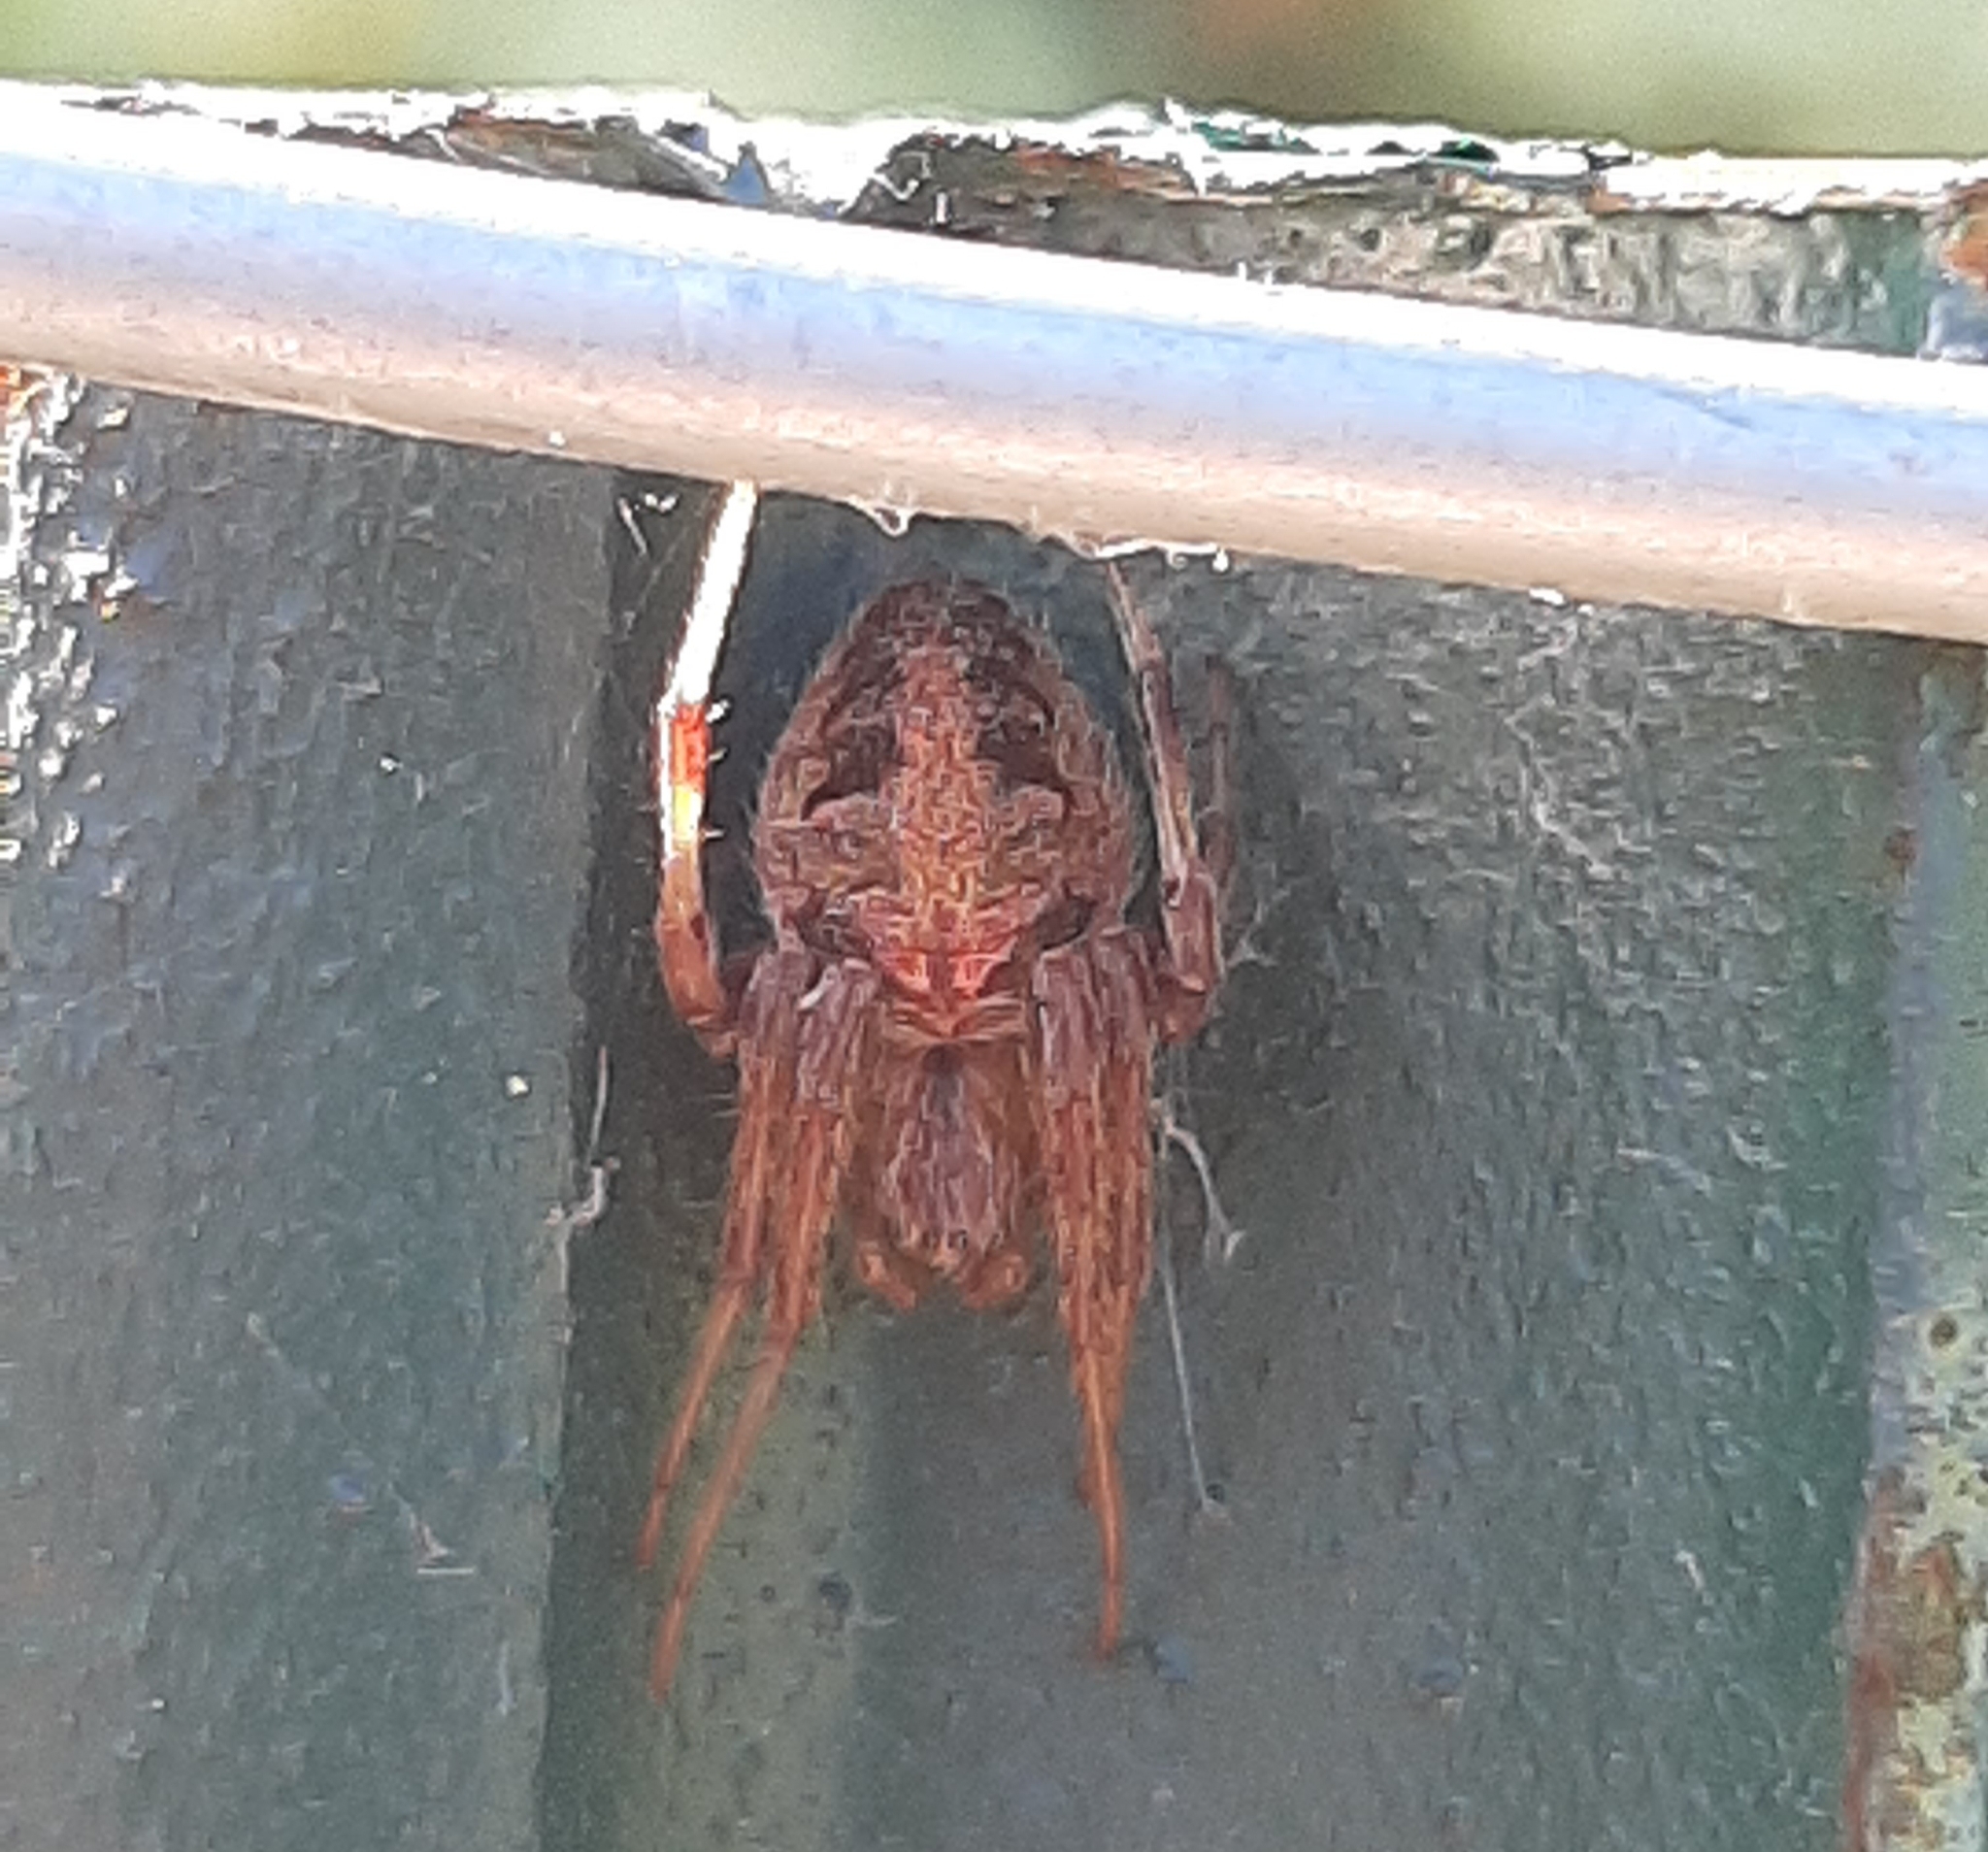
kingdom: Animalia
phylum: Arthropoda
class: Arachnida
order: Araneae
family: Araneidae
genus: Neoscona
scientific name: Neoscona arabesca
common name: Orb weavers
